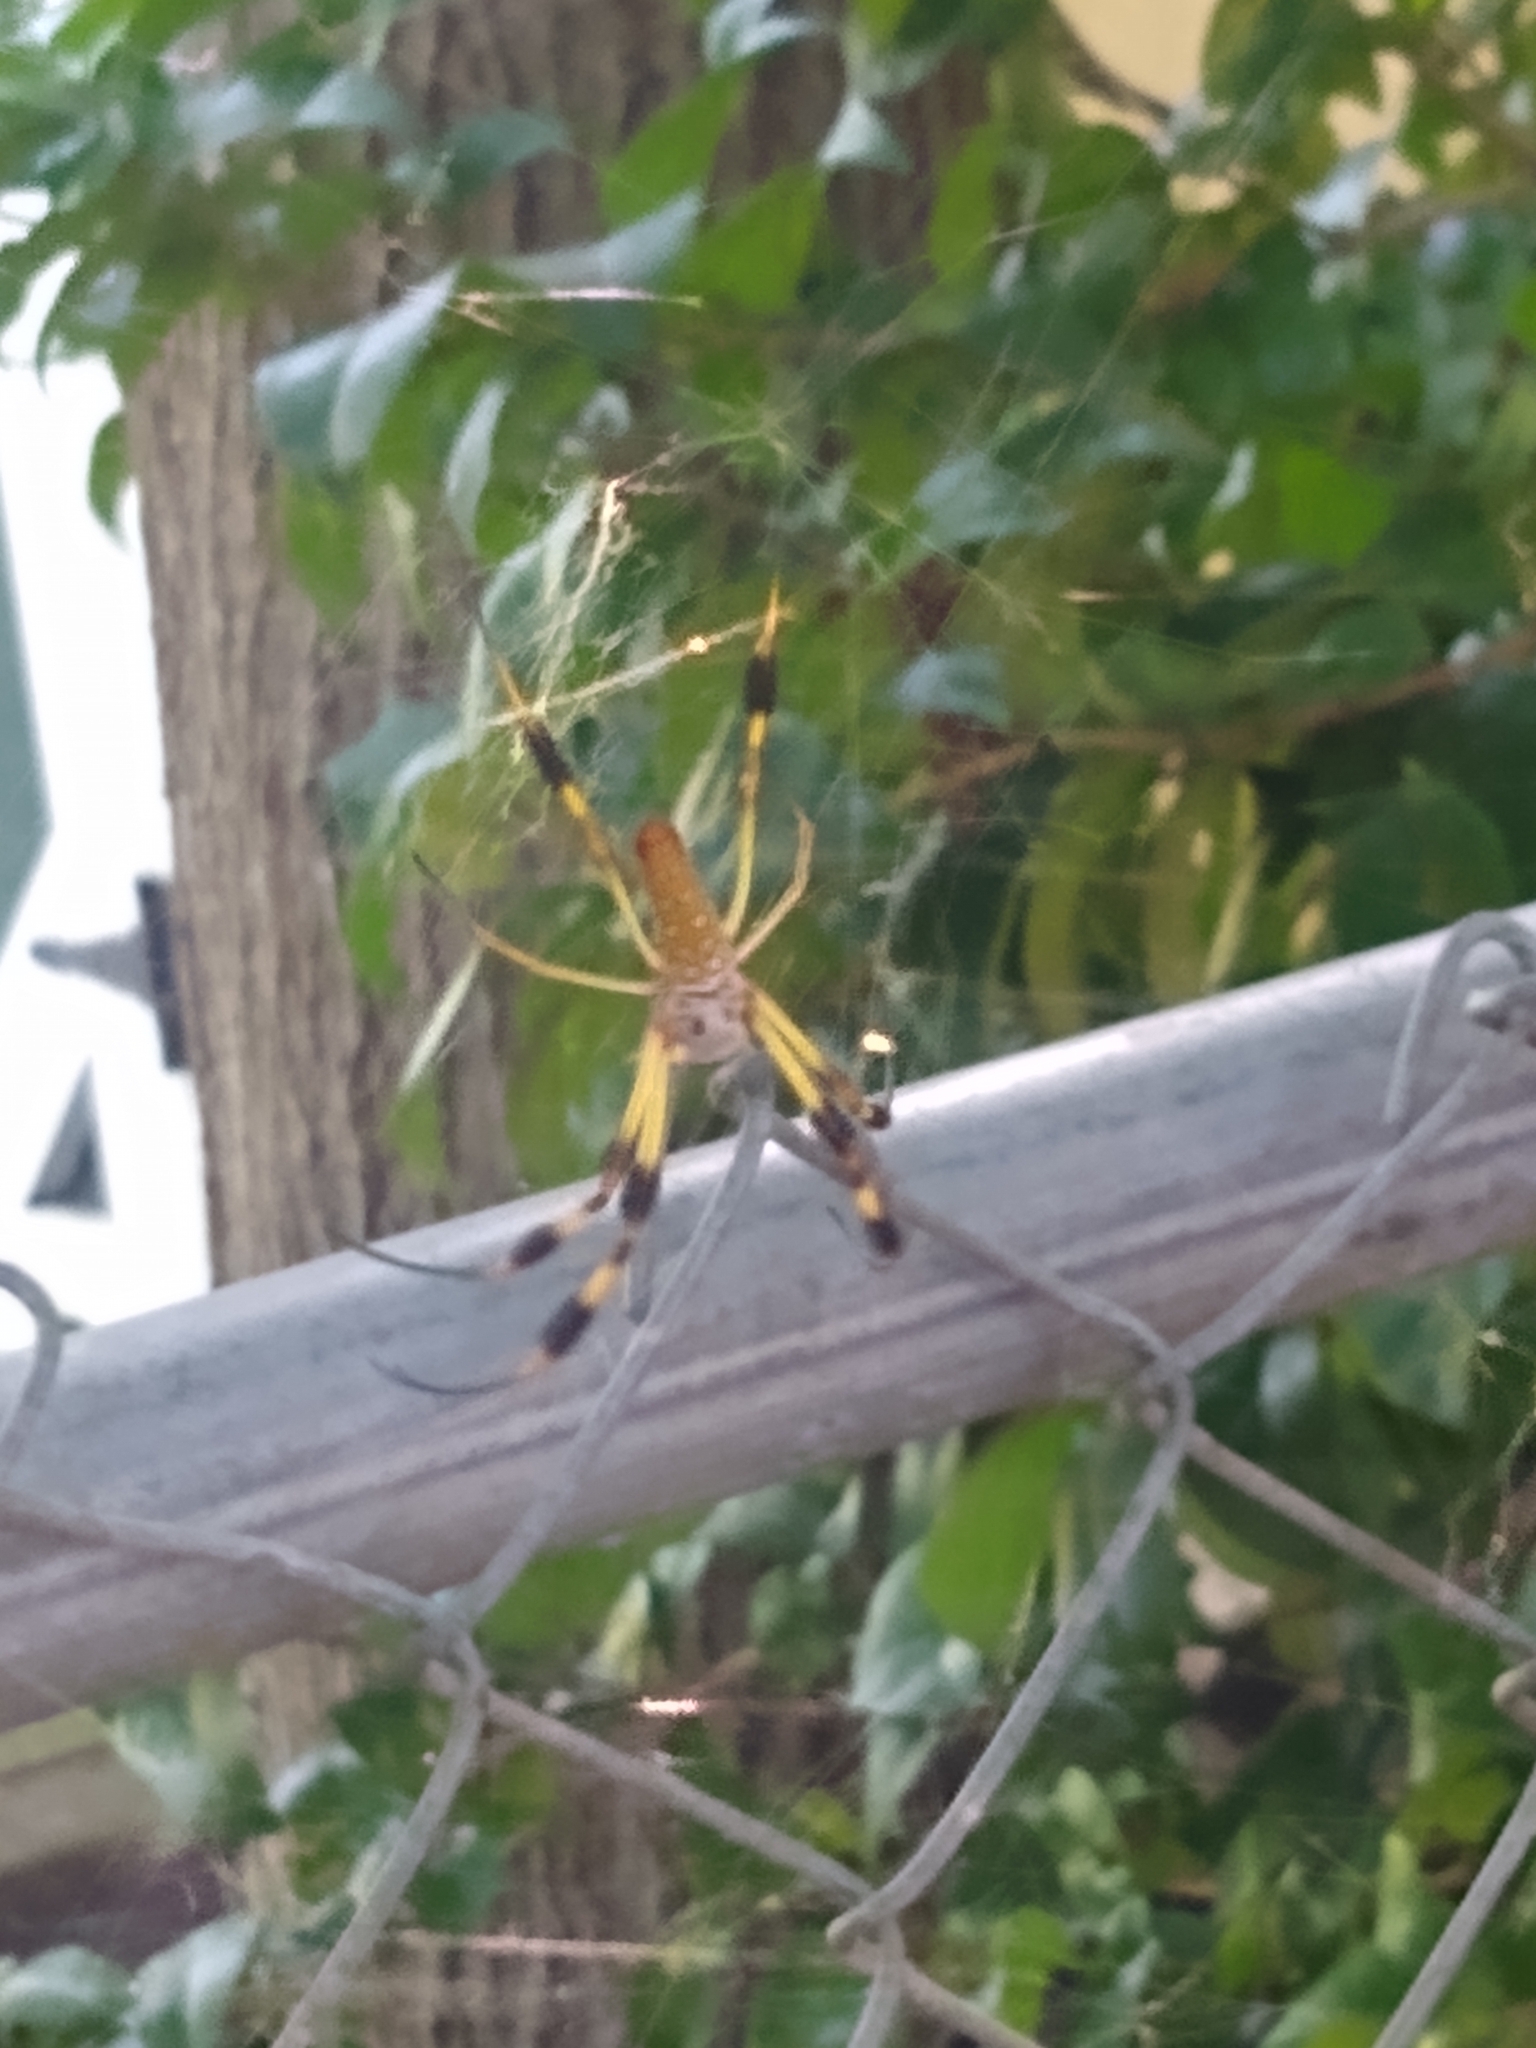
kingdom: Animalia
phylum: Arthropoda
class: Arachnida
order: Araneae
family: Araneidae
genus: Trichonephila
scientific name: Trichonephila clavipes
